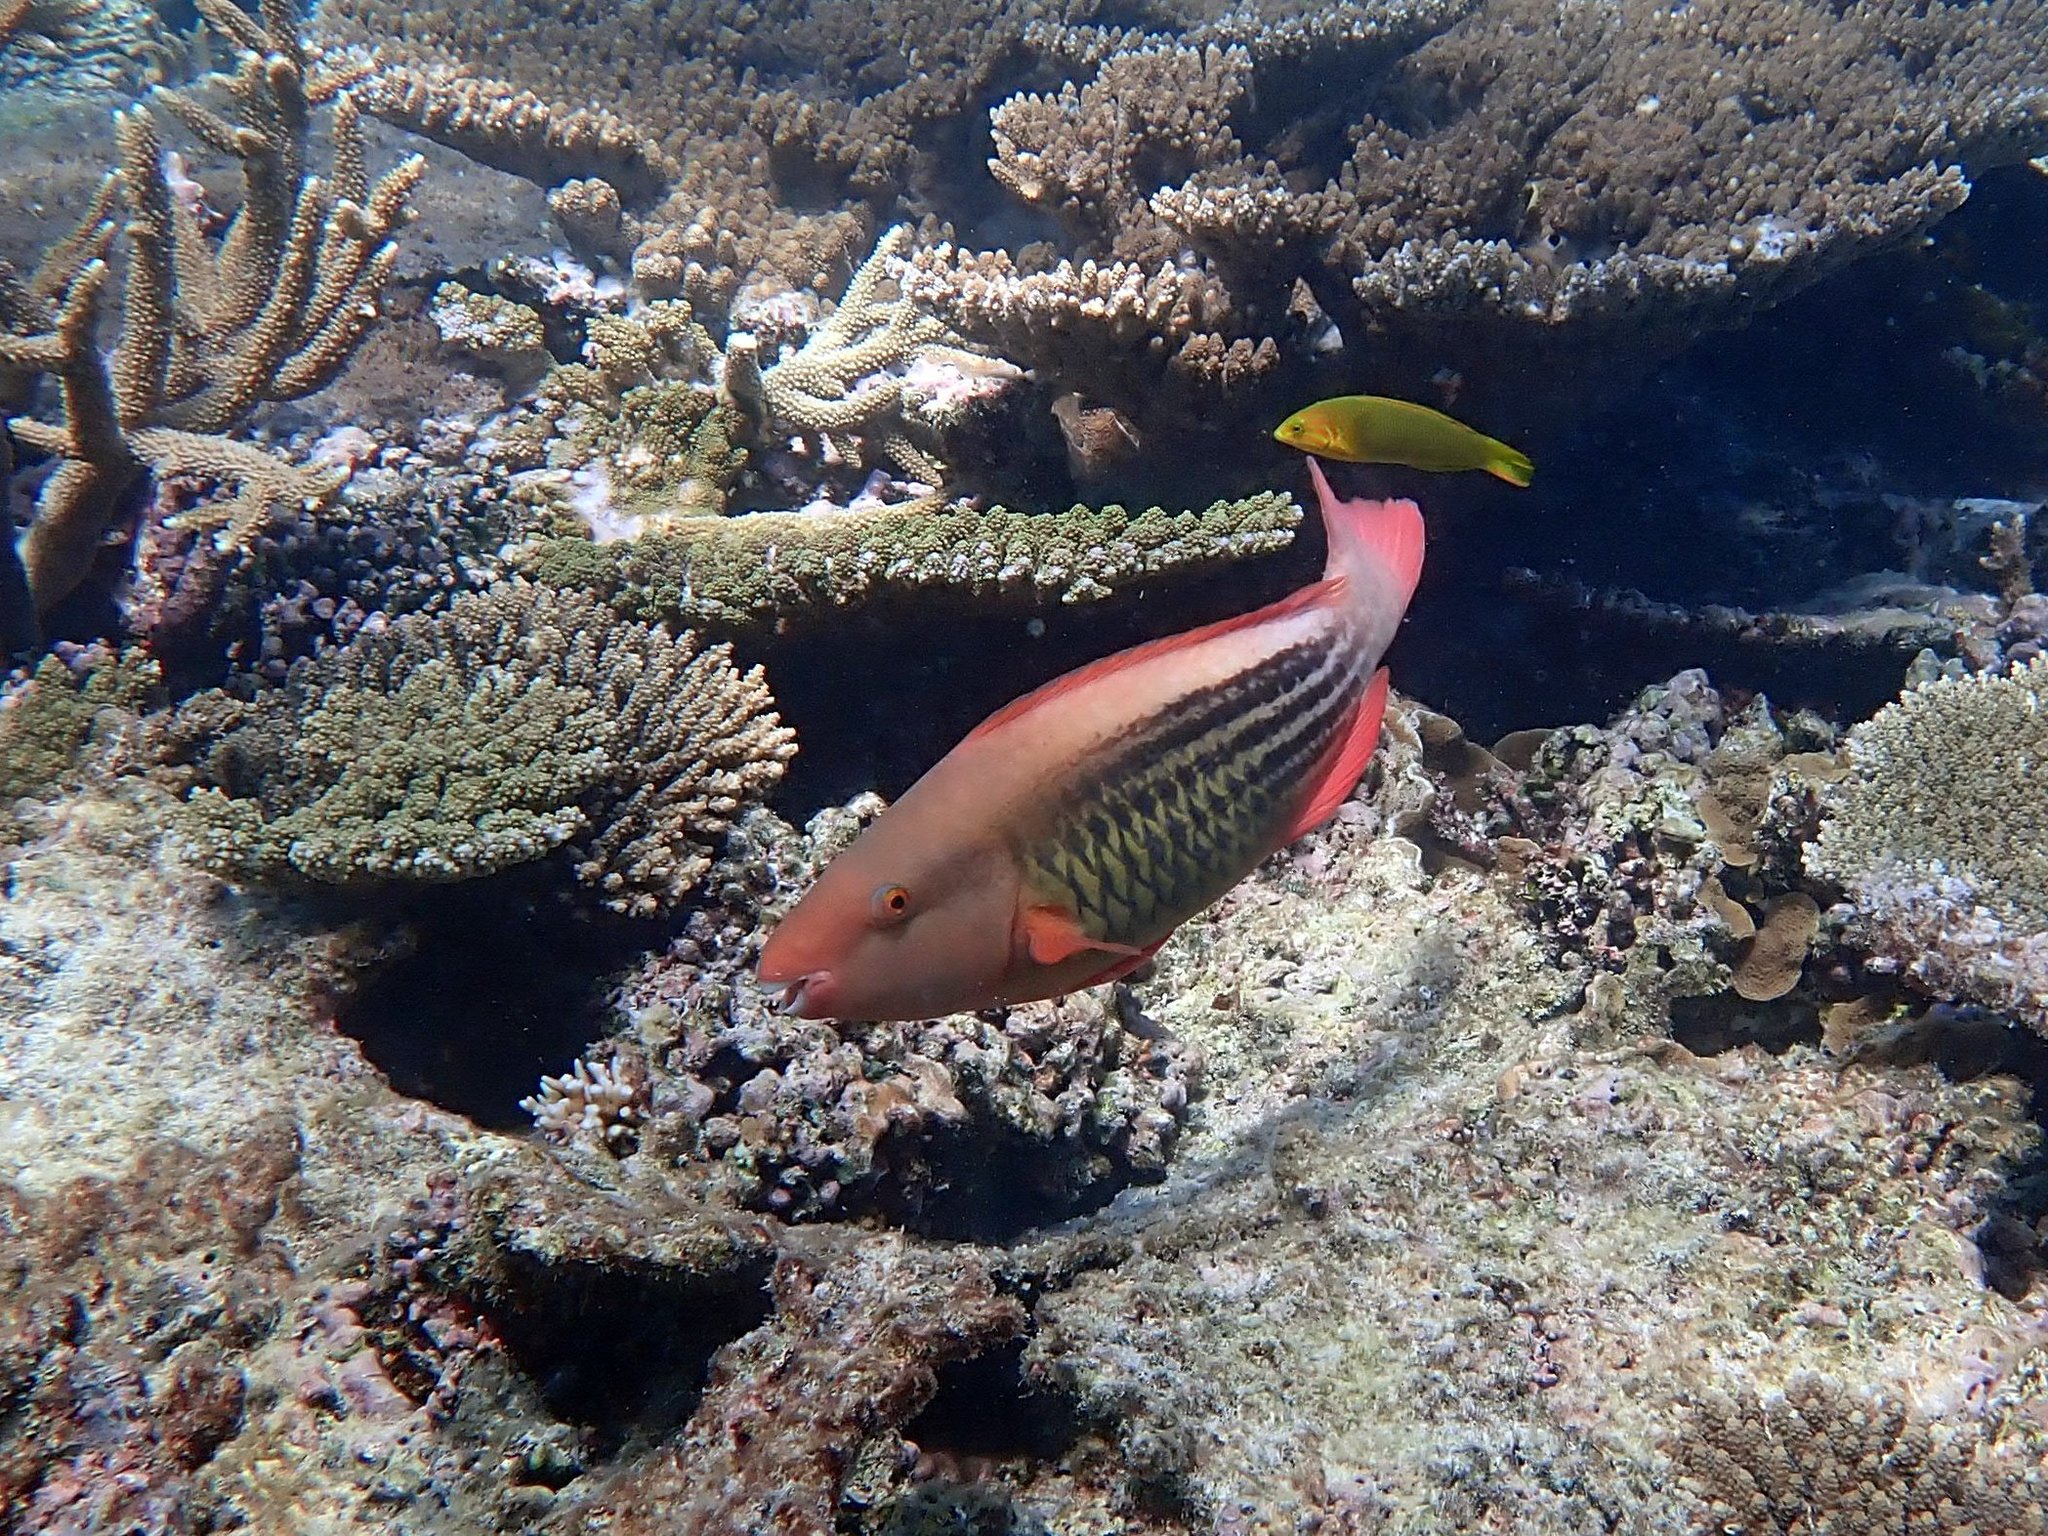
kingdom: Animalia
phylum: Chordata
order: Perciformes
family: Scaridae
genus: Scarus
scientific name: Scarus frenatus
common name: Bridled parrotfish
